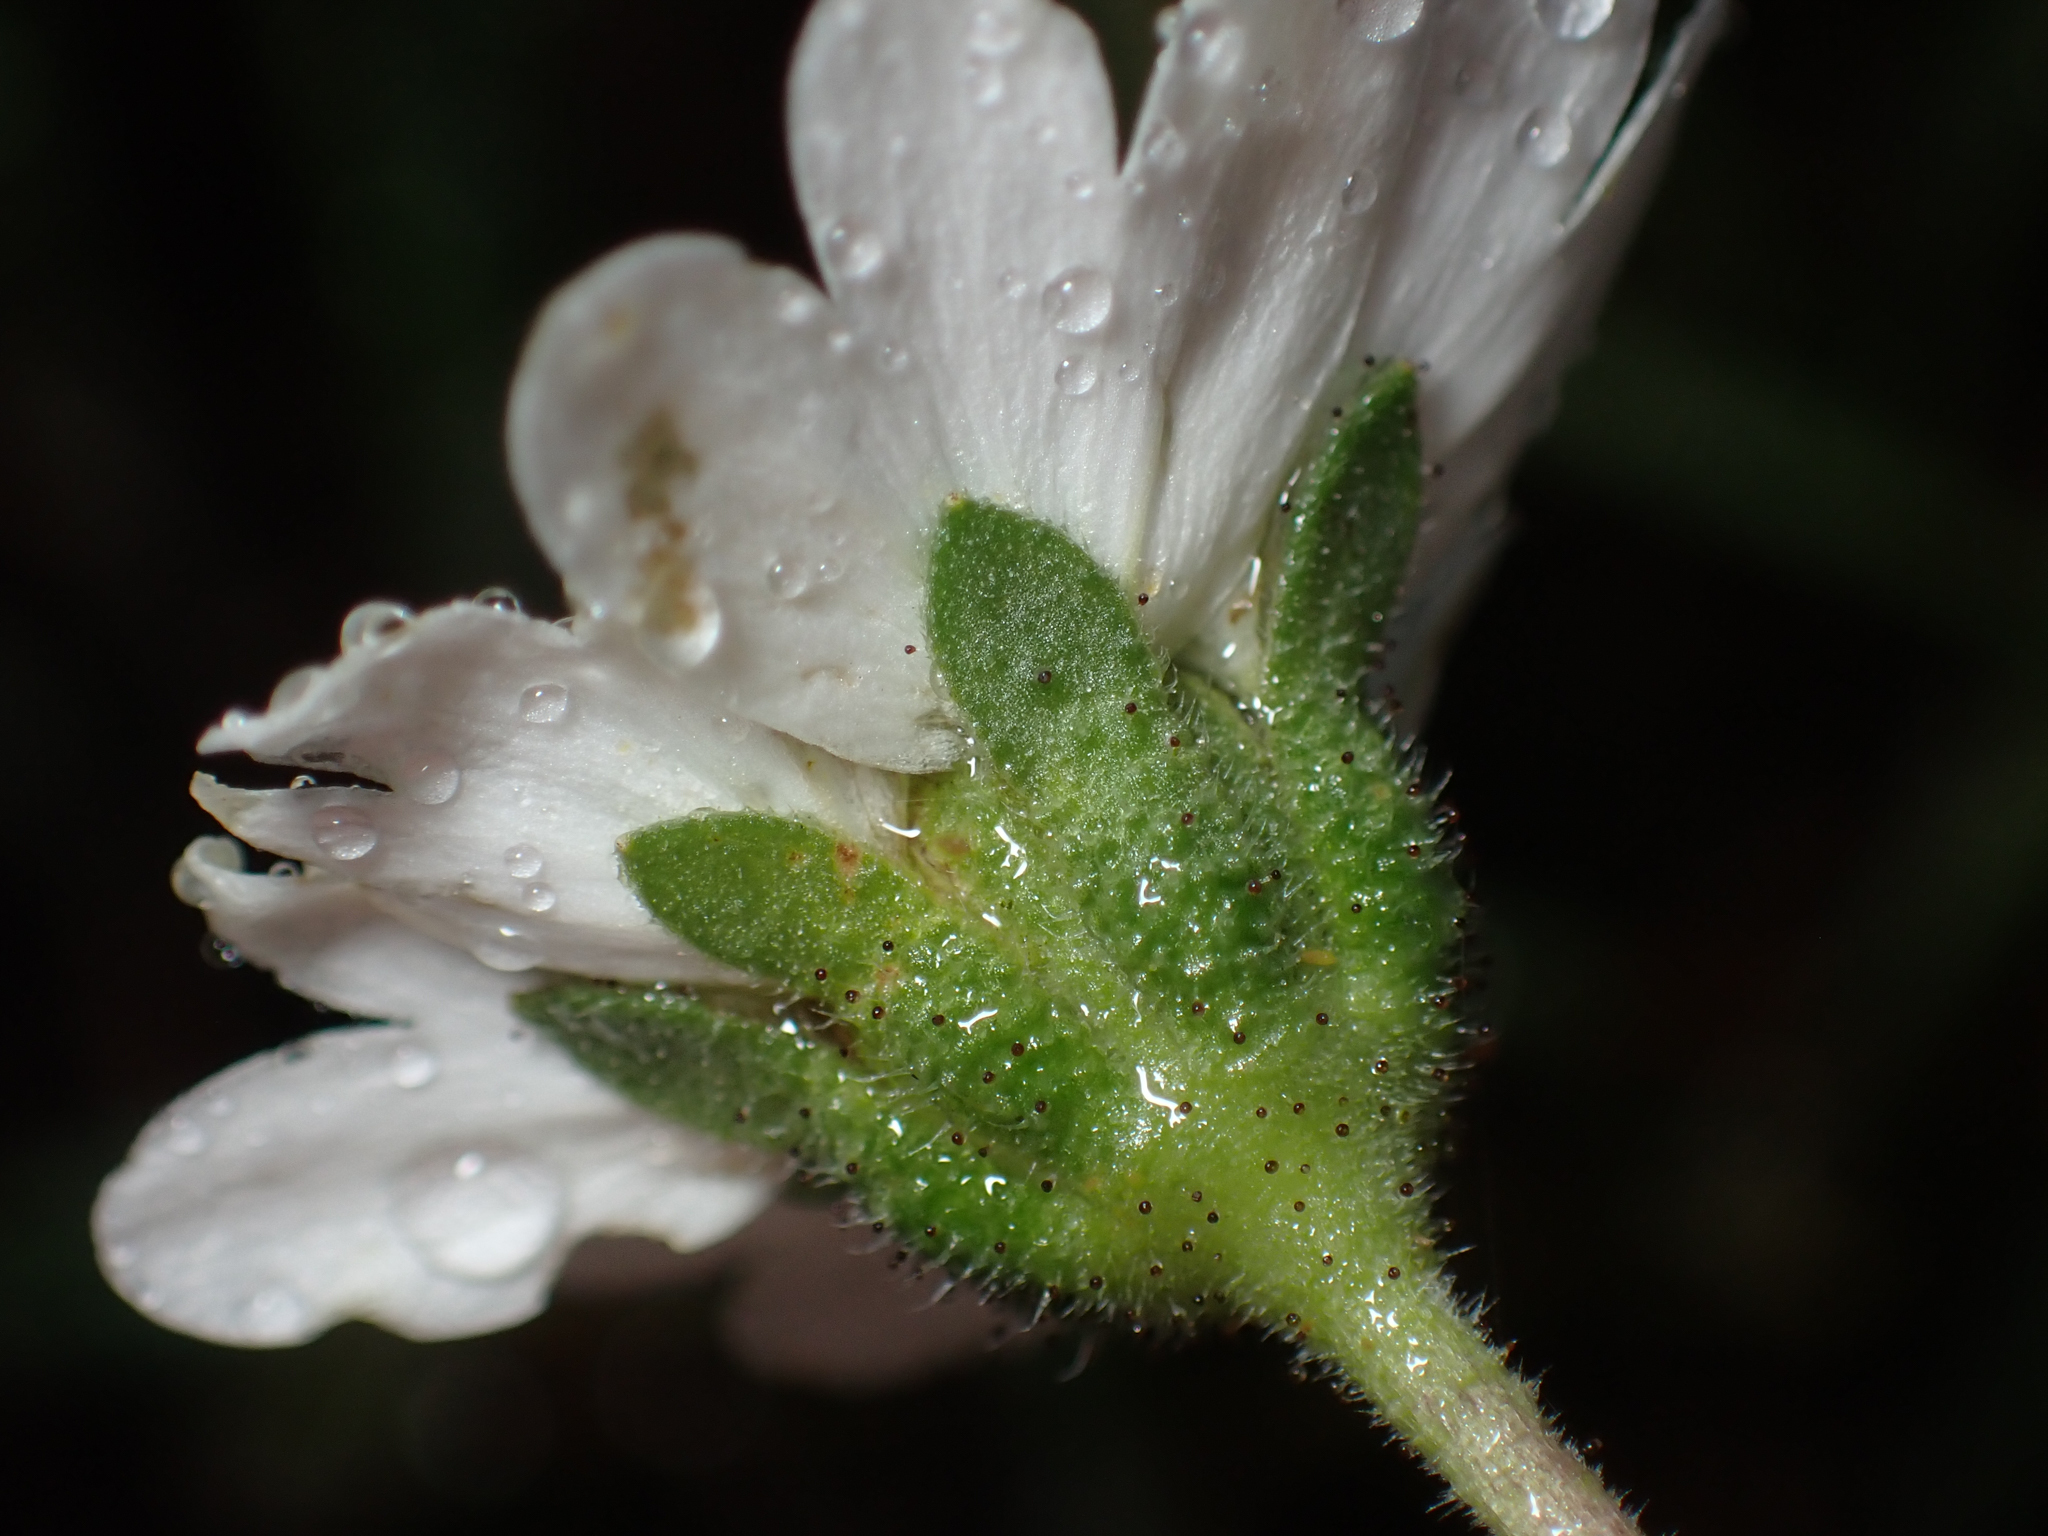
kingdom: Plantae
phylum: Tracheophyta
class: Magnoliopsida
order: Asterales
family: Asteraceae
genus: Layia
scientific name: Layia leucopappa
